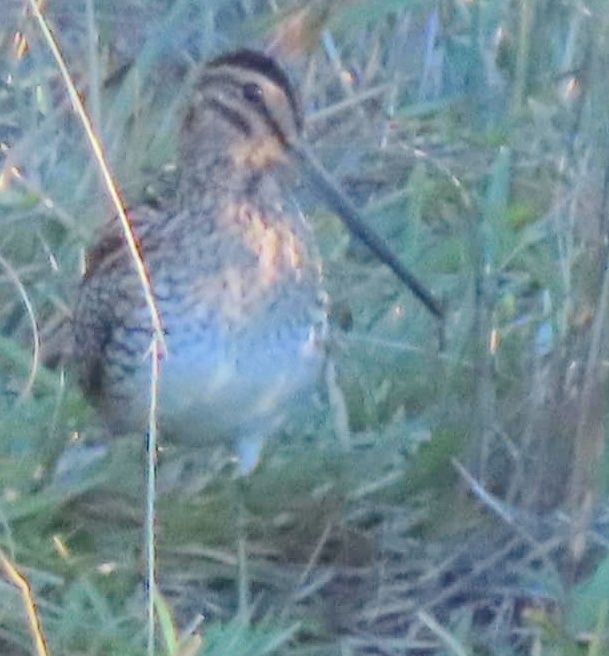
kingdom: Animalia
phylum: Chordata
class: Aves
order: Charadriiformes
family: Scolopacidae
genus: Gallinago
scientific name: Gallinago nigripennis
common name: African snipe
